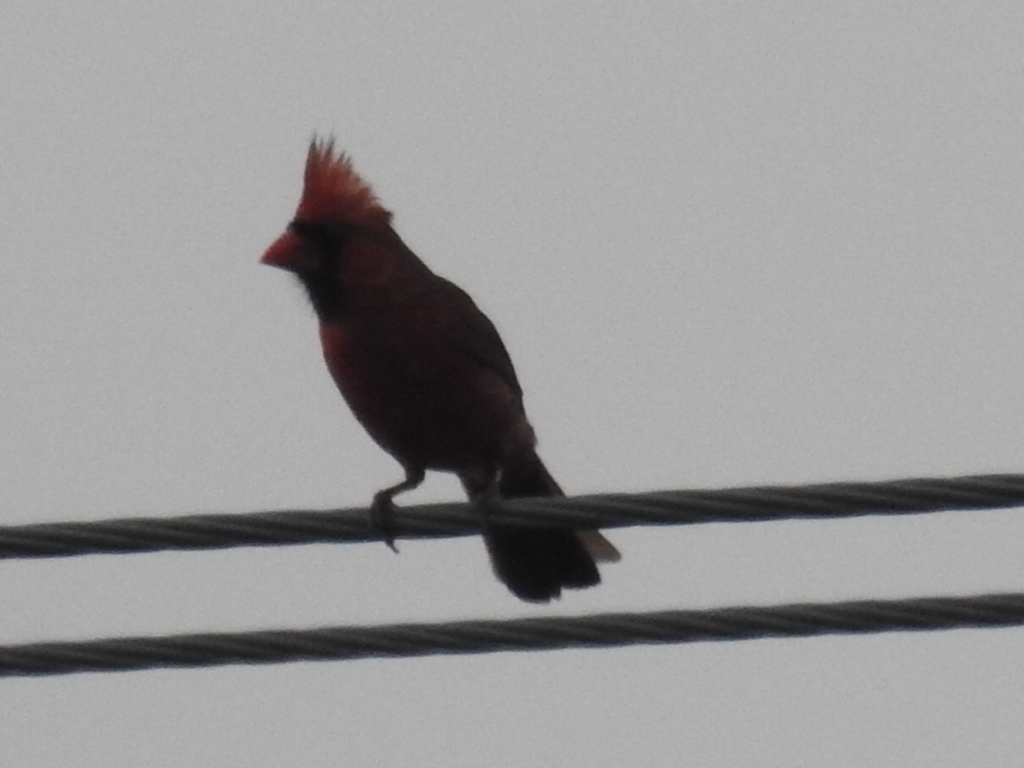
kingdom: Animalia
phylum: Chordata
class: Aves
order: Passeriformes
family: Cardinalidae
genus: Cardinalis
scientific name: Cardinalis cardinalis
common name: Northern cardinal
